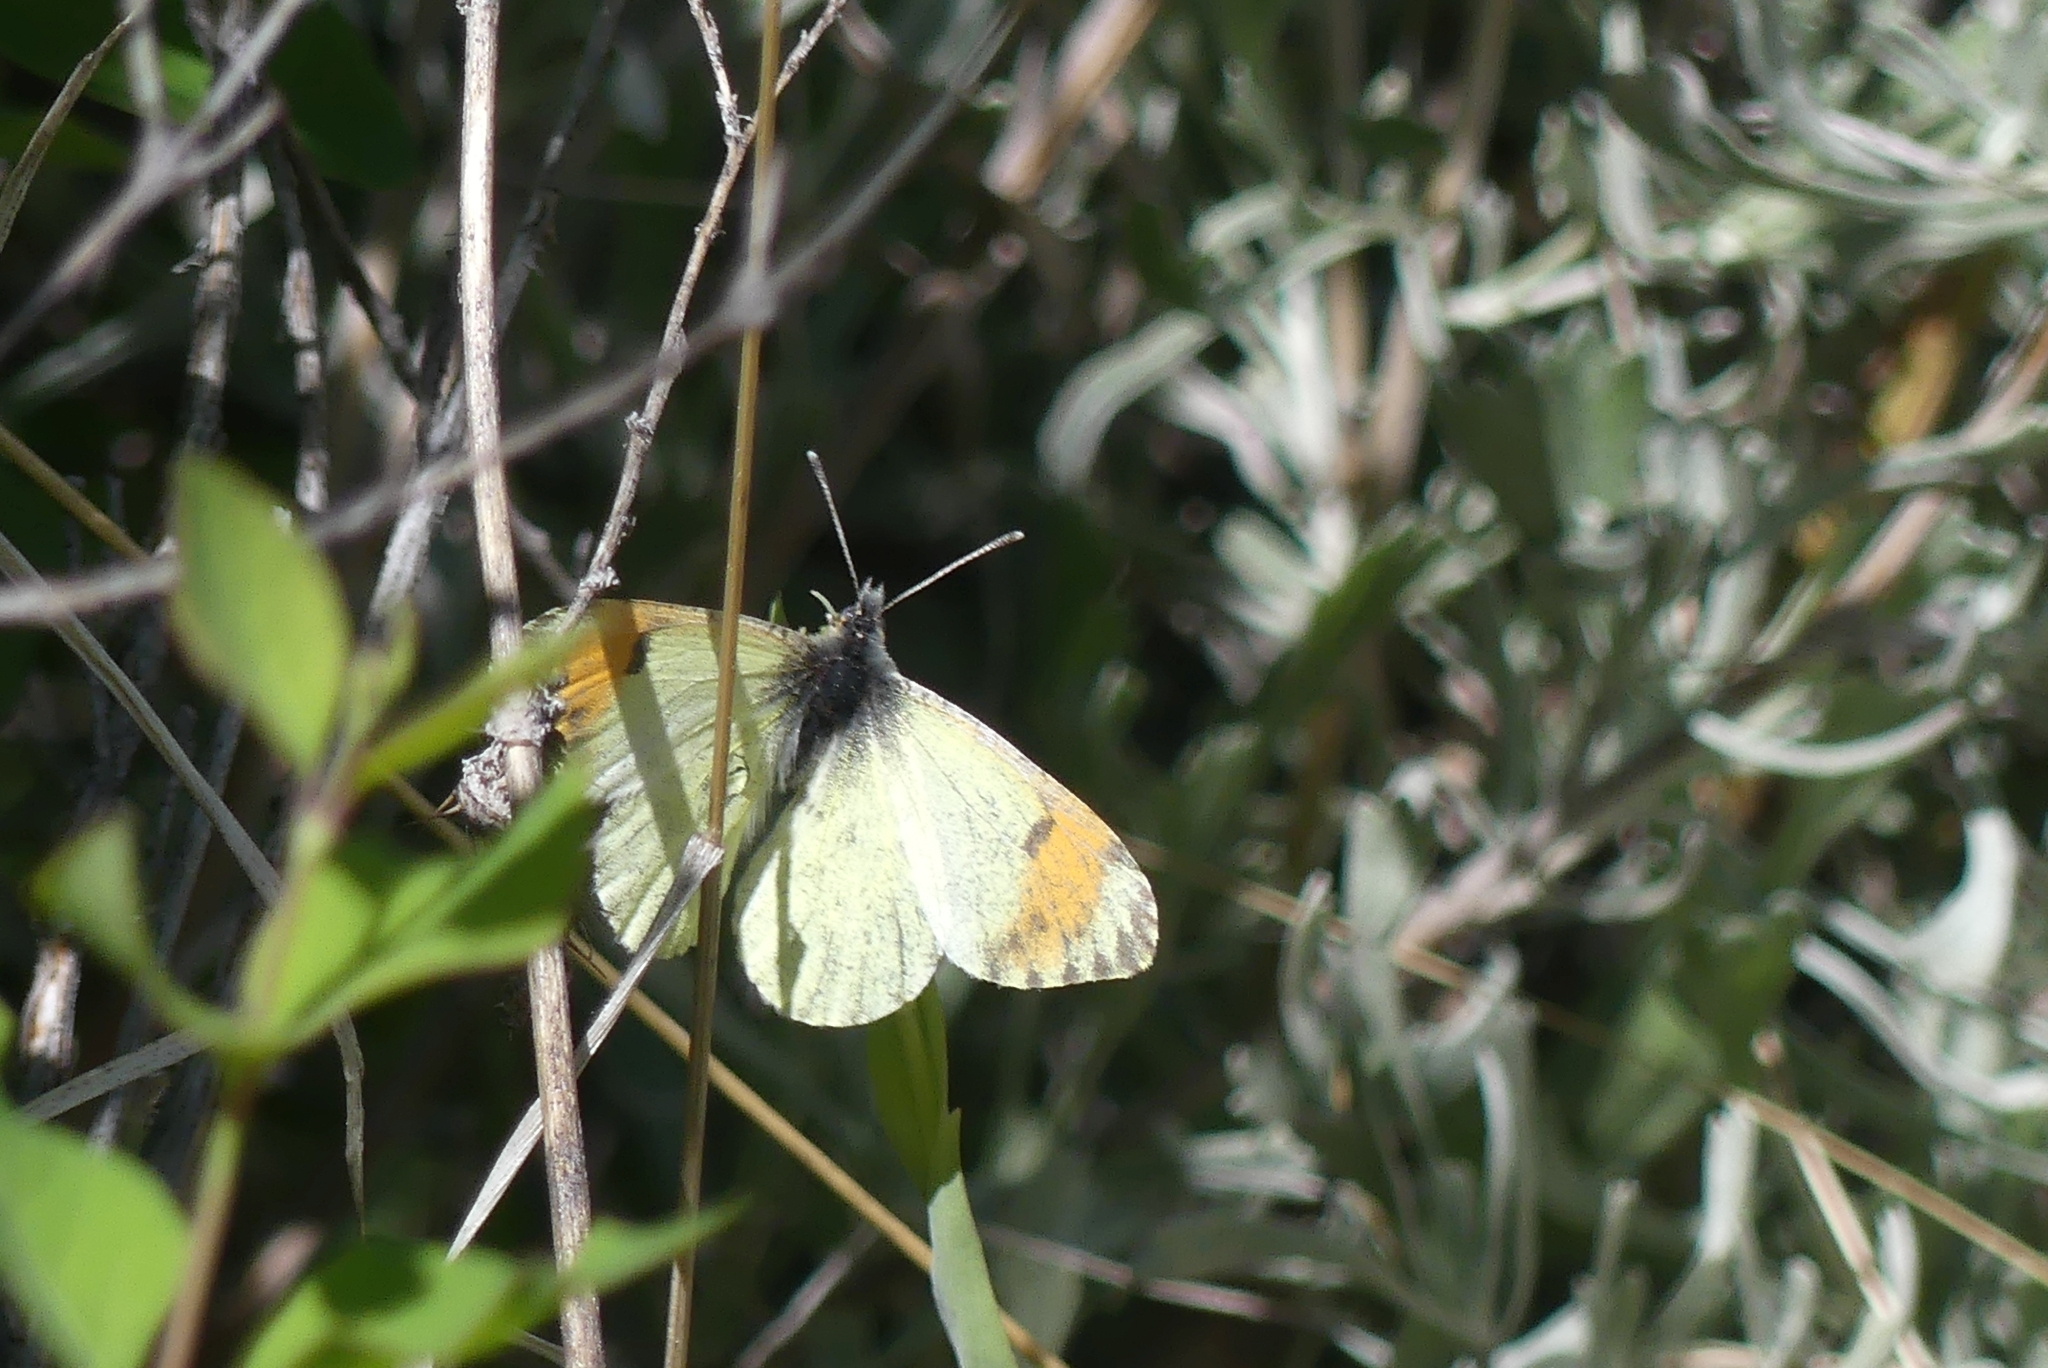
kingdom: Animalia
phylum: Arthropoda
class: Insecta
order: Lepidoptera
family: Pieridae
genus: Anthocharis
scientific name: Anthocharis julia
